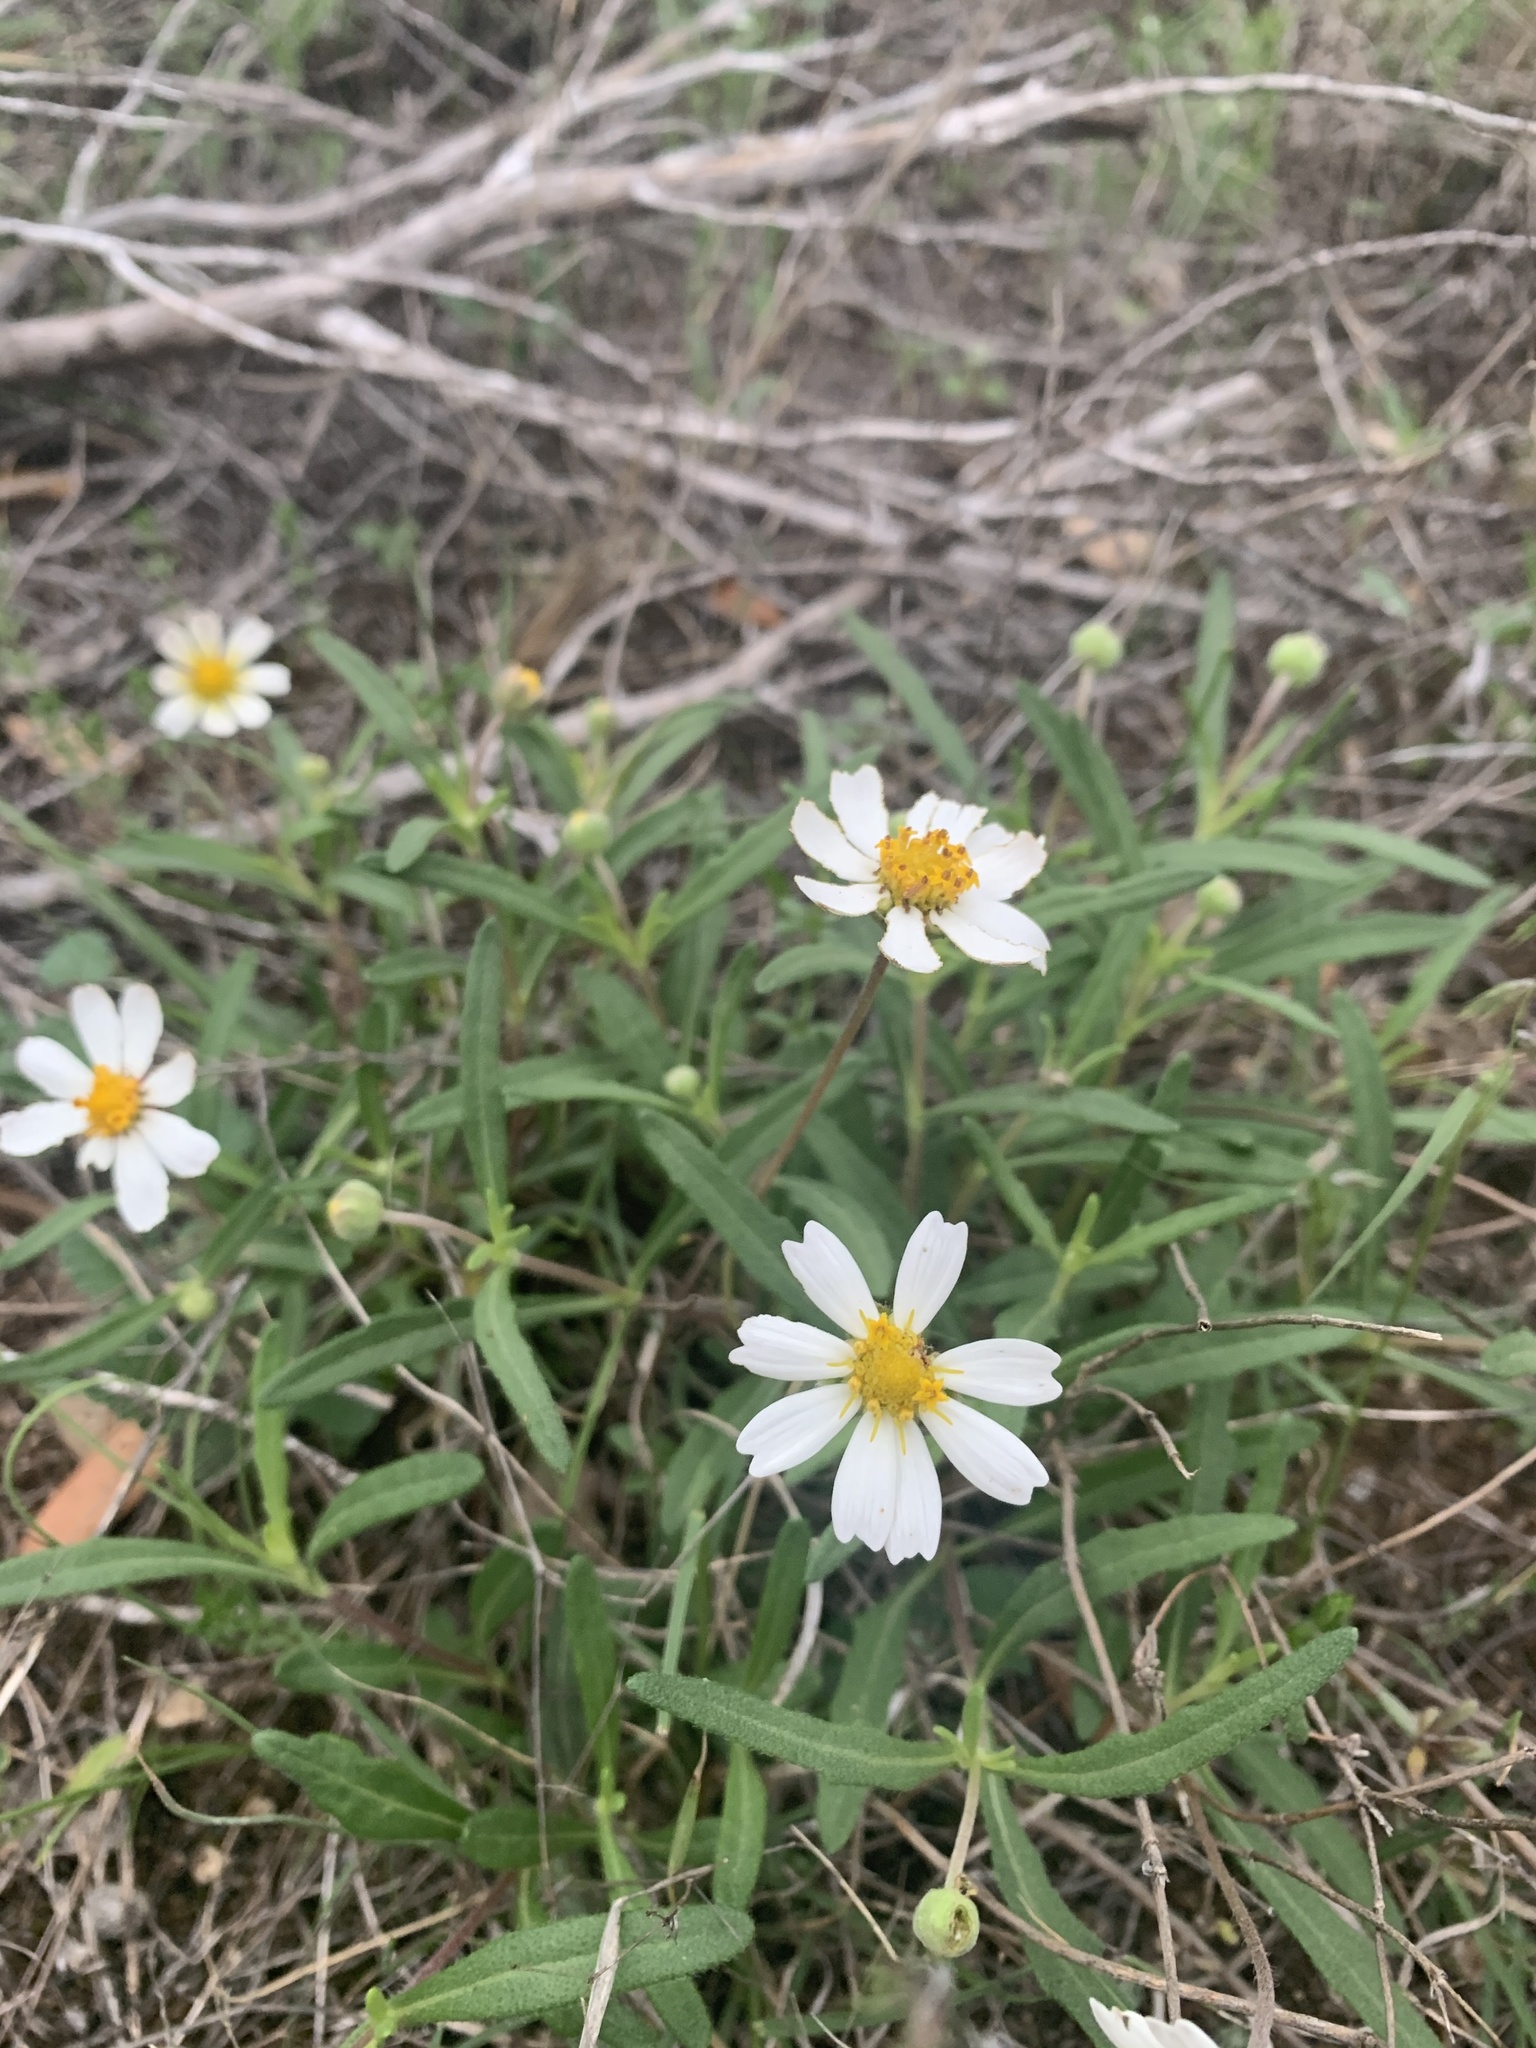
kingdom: Plantae
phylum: Tracheophyta
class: Magnoliopsida
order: Asterales
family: Asteraceae
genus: Melampodium
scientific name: Melampodium leucanthum
